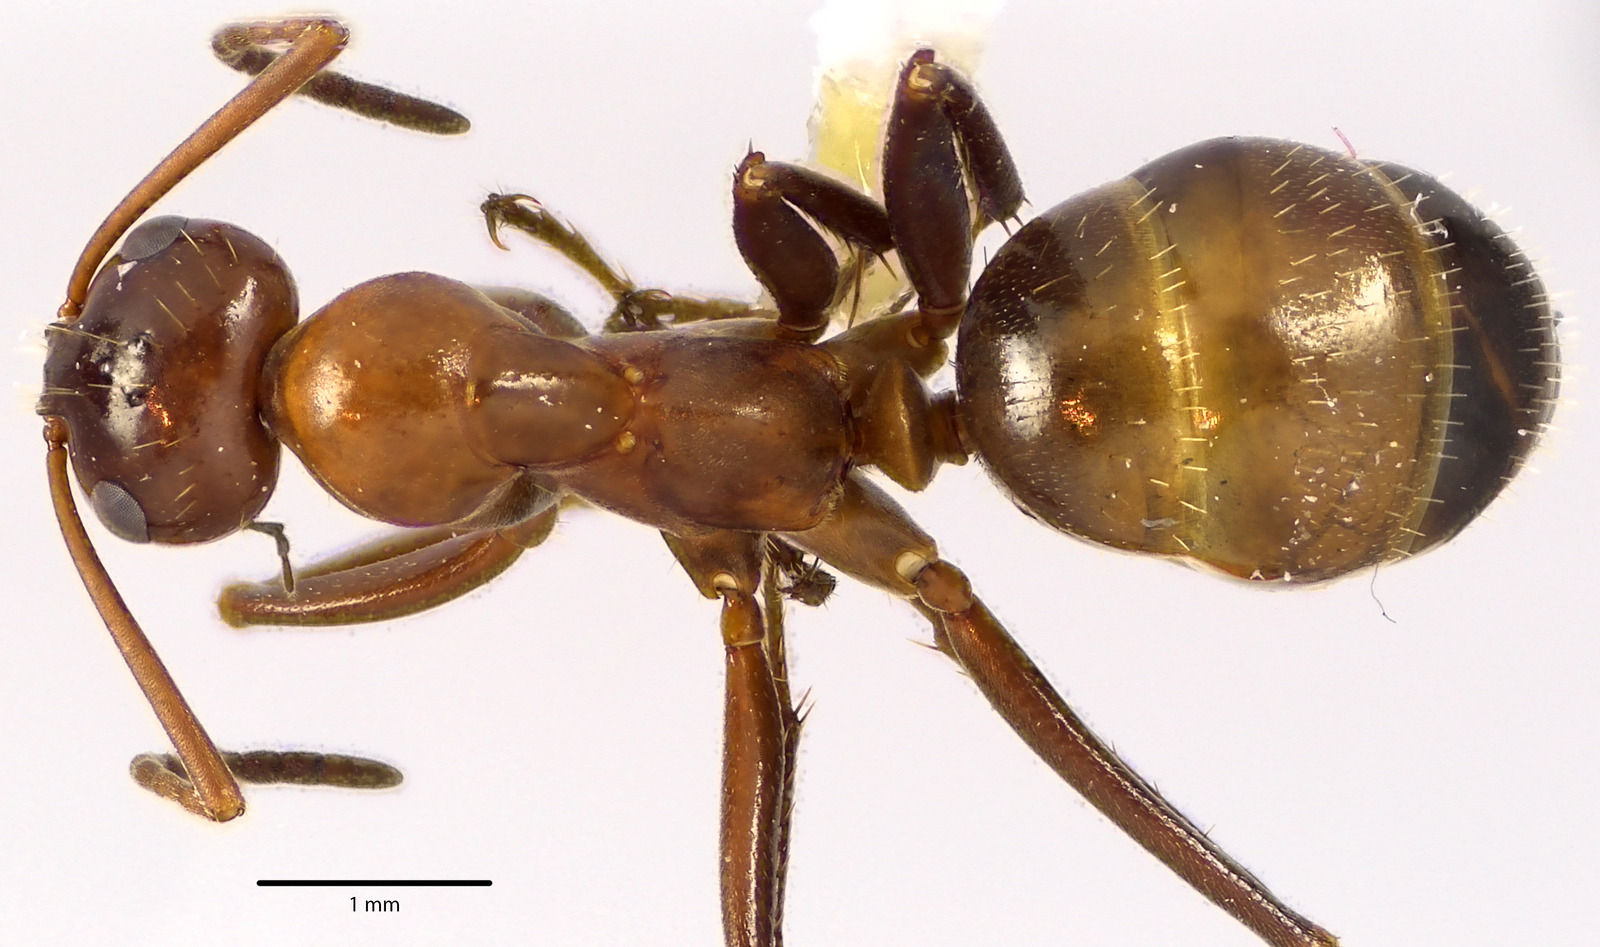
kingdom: Animalia
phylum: Arthropoda
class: Insecta
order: Hymenoptera
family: Formicidae
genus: Formica
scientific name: Formica incerta
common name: Uncertain field ant
